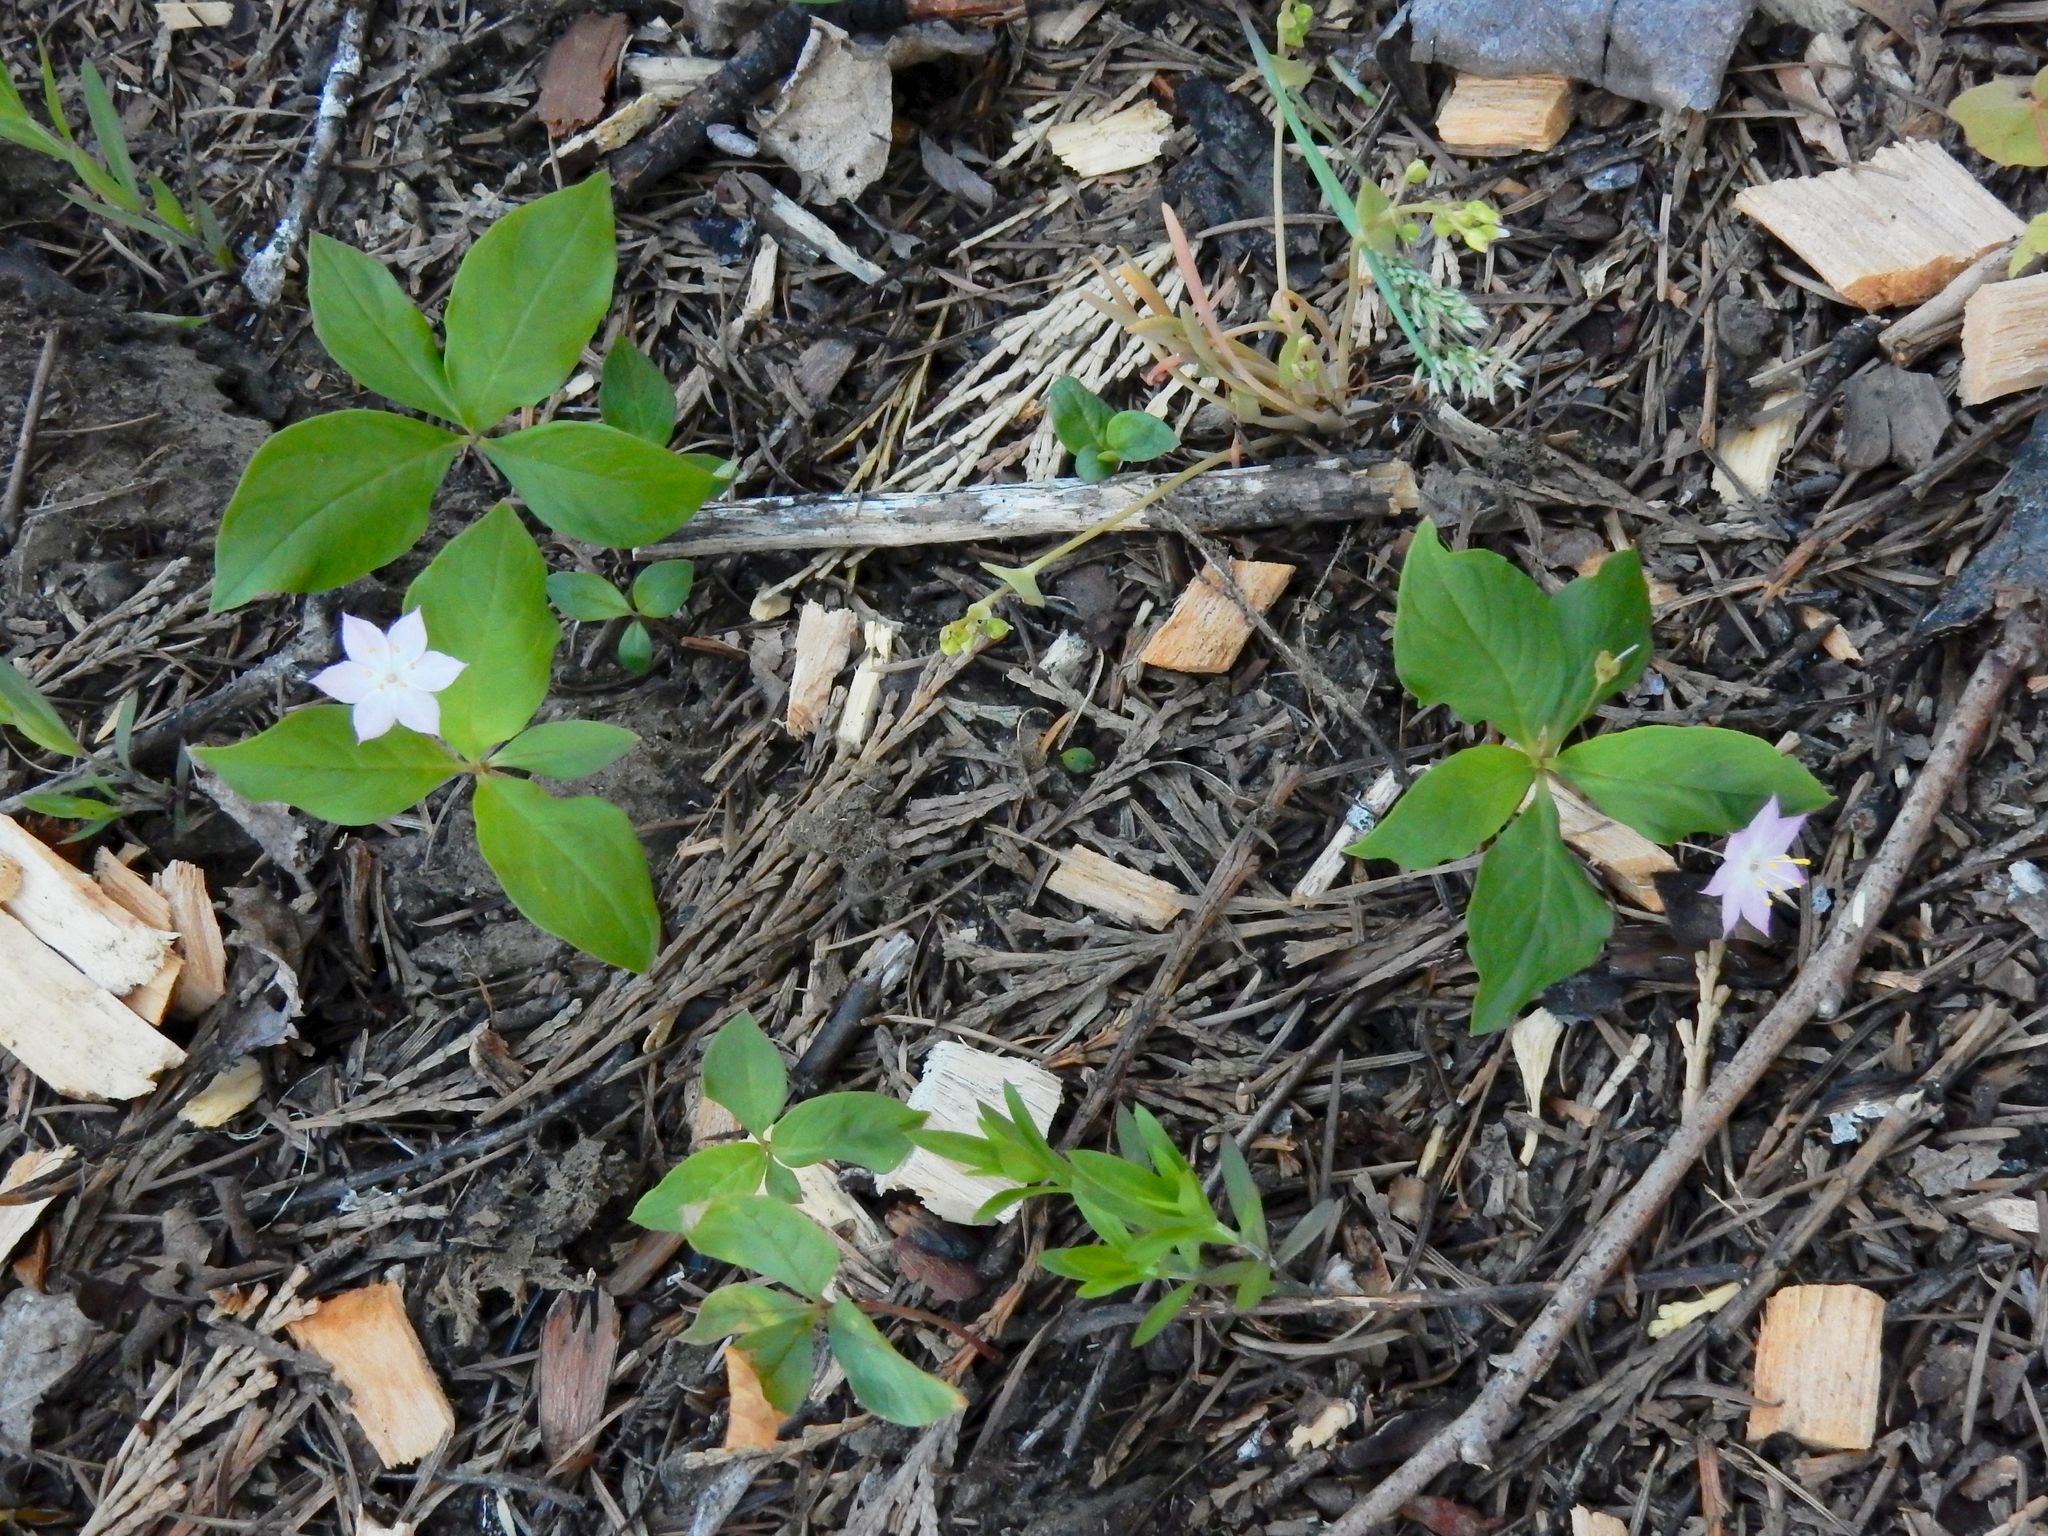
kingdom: Plantae
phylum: Tracheophyta
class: Magnoliopsida
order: Ericales
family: Primulaceae
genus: Lysimachia
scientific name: Lysimachia latifolia
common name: Pacific starflower
